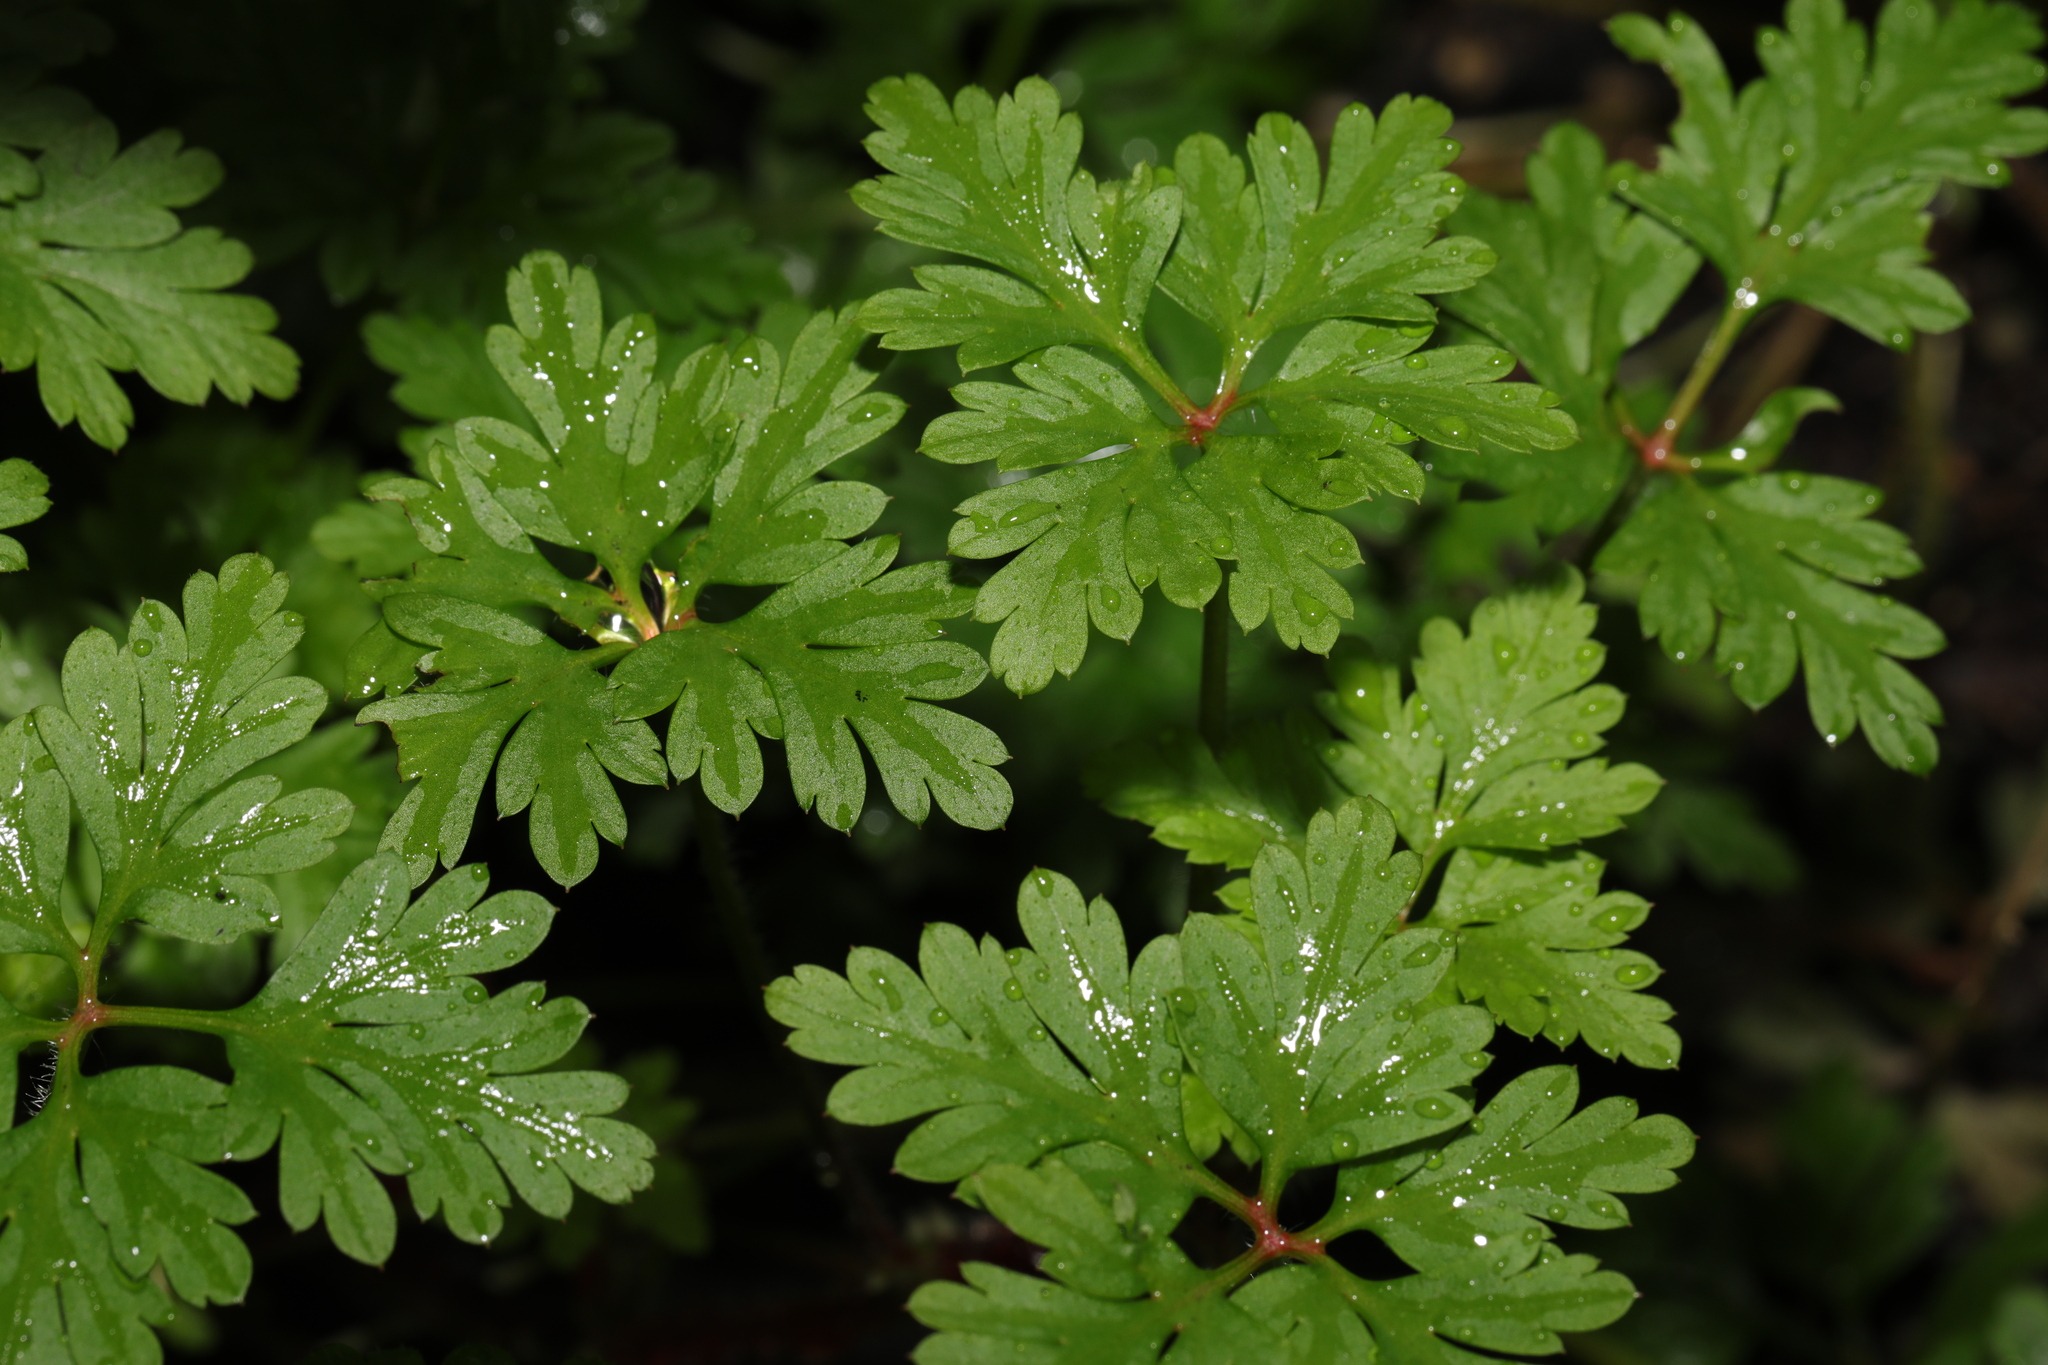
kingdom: Plantae
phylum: Tracheophyta
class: Magnoliopsida
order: Geraniales
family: Geraniaceae
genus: Geranium
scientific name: Geranium robertianum
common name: Herb-robert
